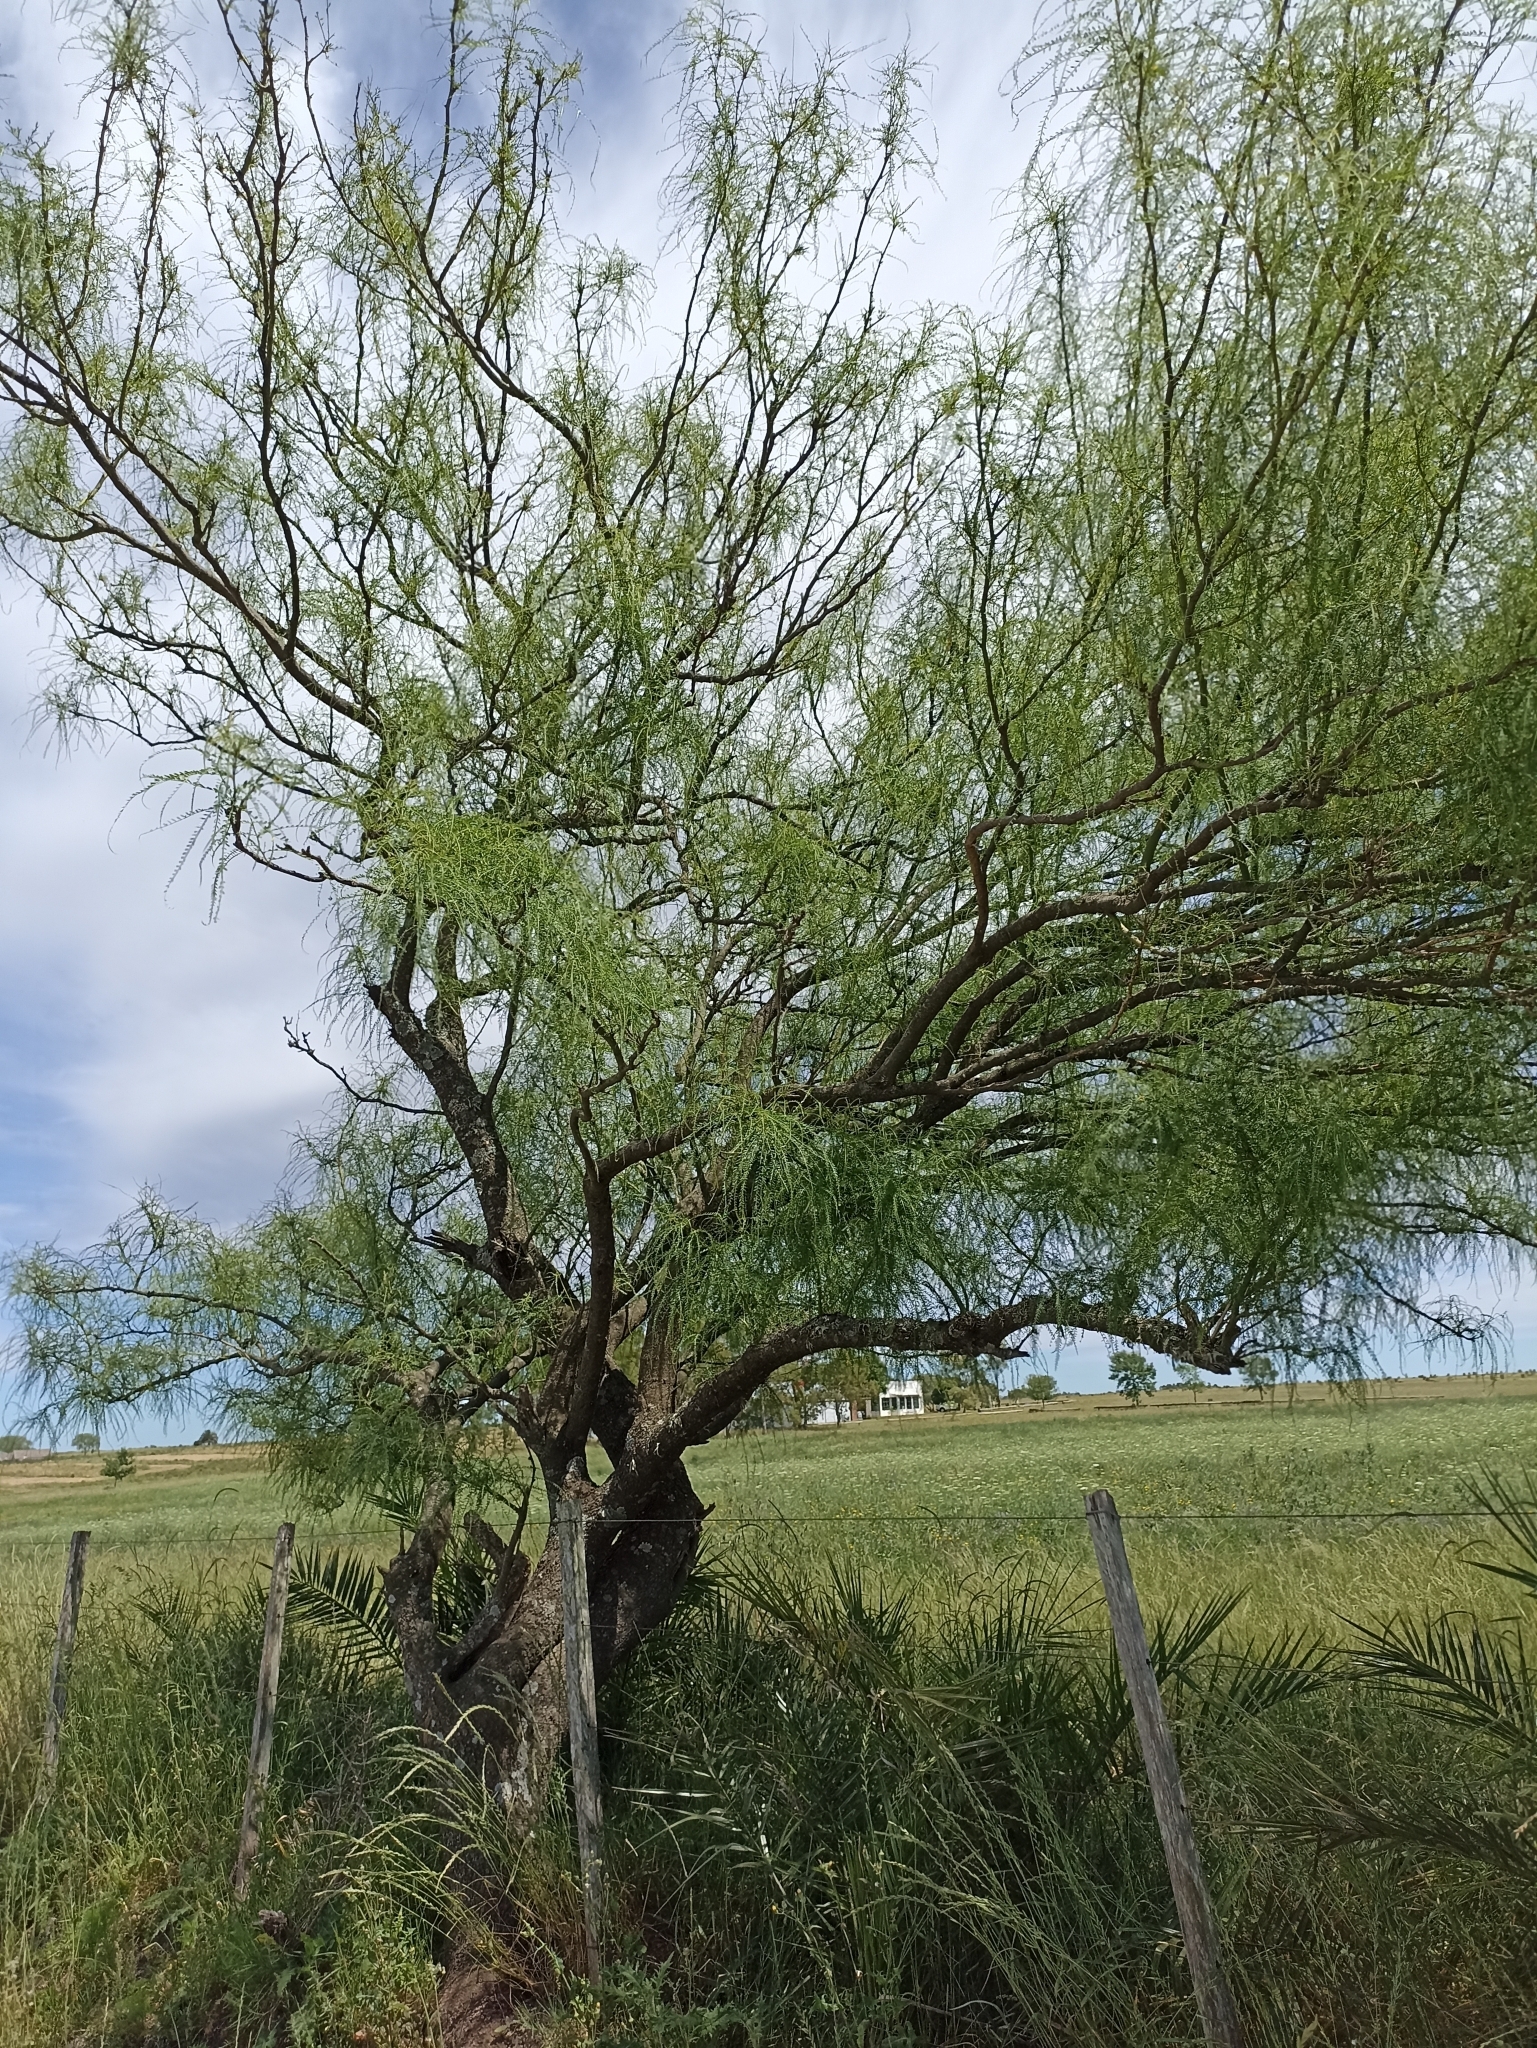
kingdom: Plantae
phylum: Tracheophyta
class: Magnoliopsida
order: Fabales
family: Fabaceae
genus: Parkinsonia
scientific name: Parkinsonia aculeata
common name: Jerusalem thorn
